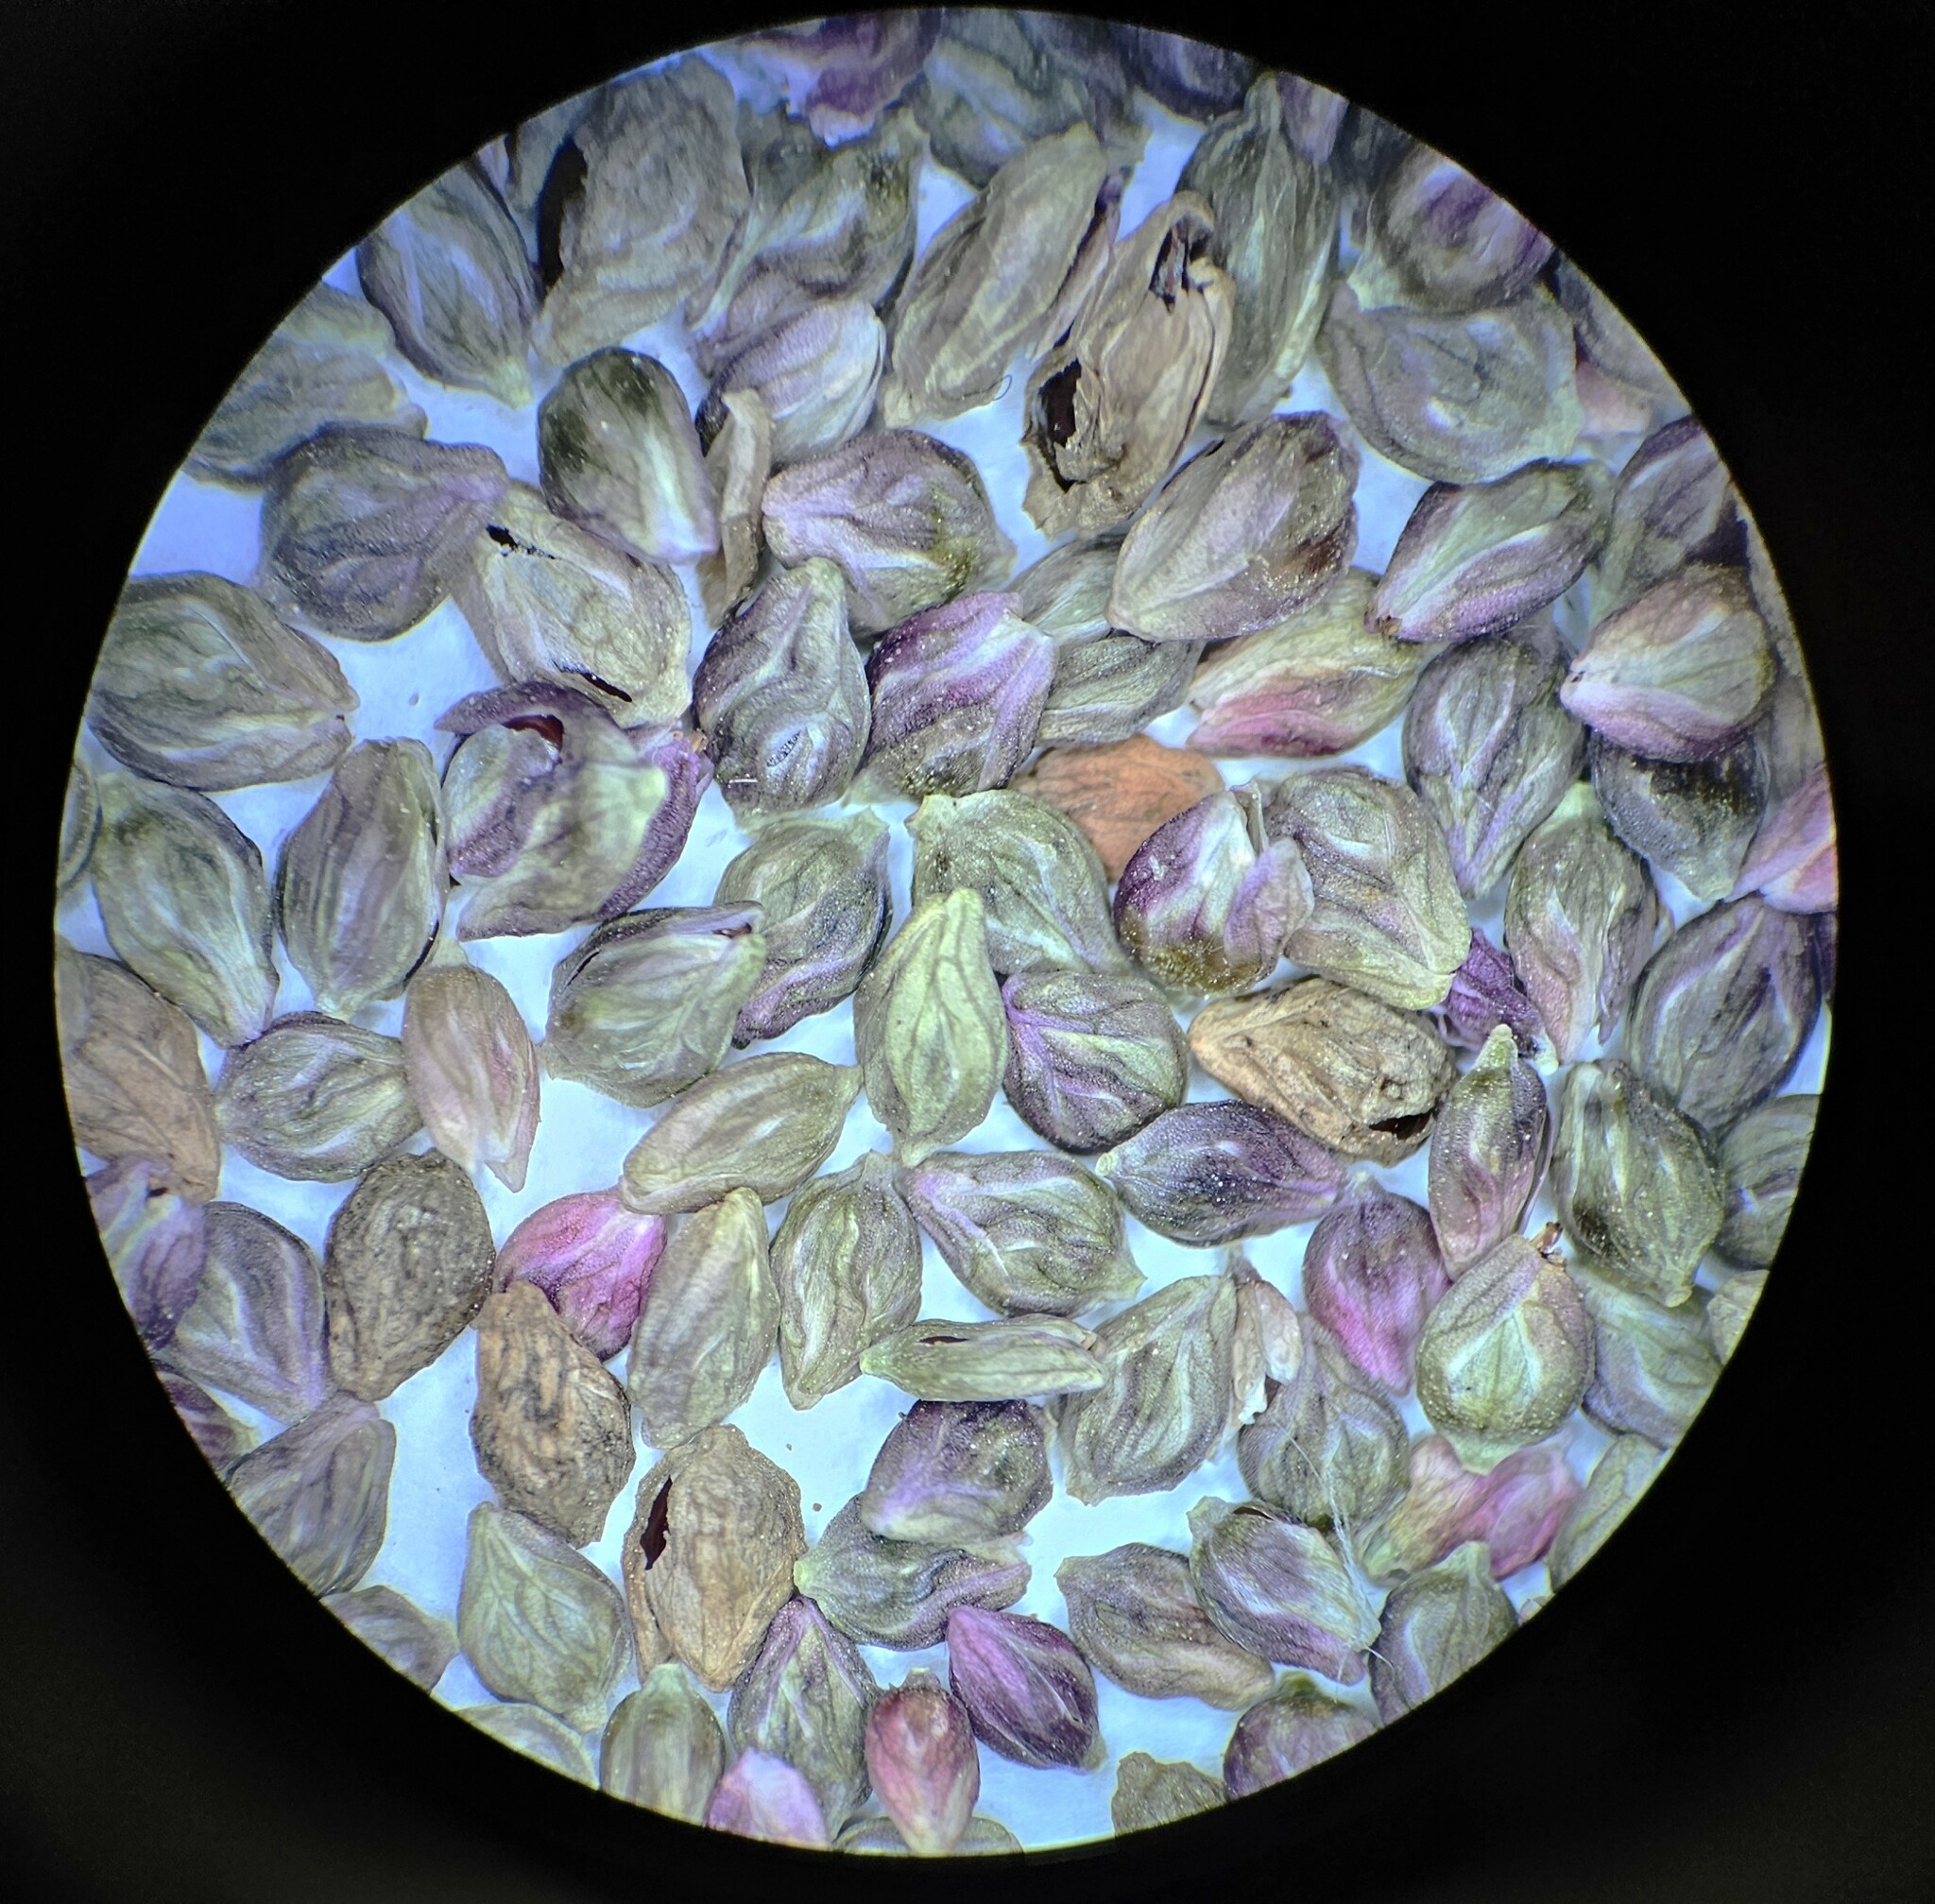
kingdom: Plantae
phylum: Tracheophyta
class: Magnoliopsida
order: Caryophyllales
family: Polygonaceae
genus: Persicaria
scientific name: Persicaria extremiorientalis
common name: Far-eastern smartweed
